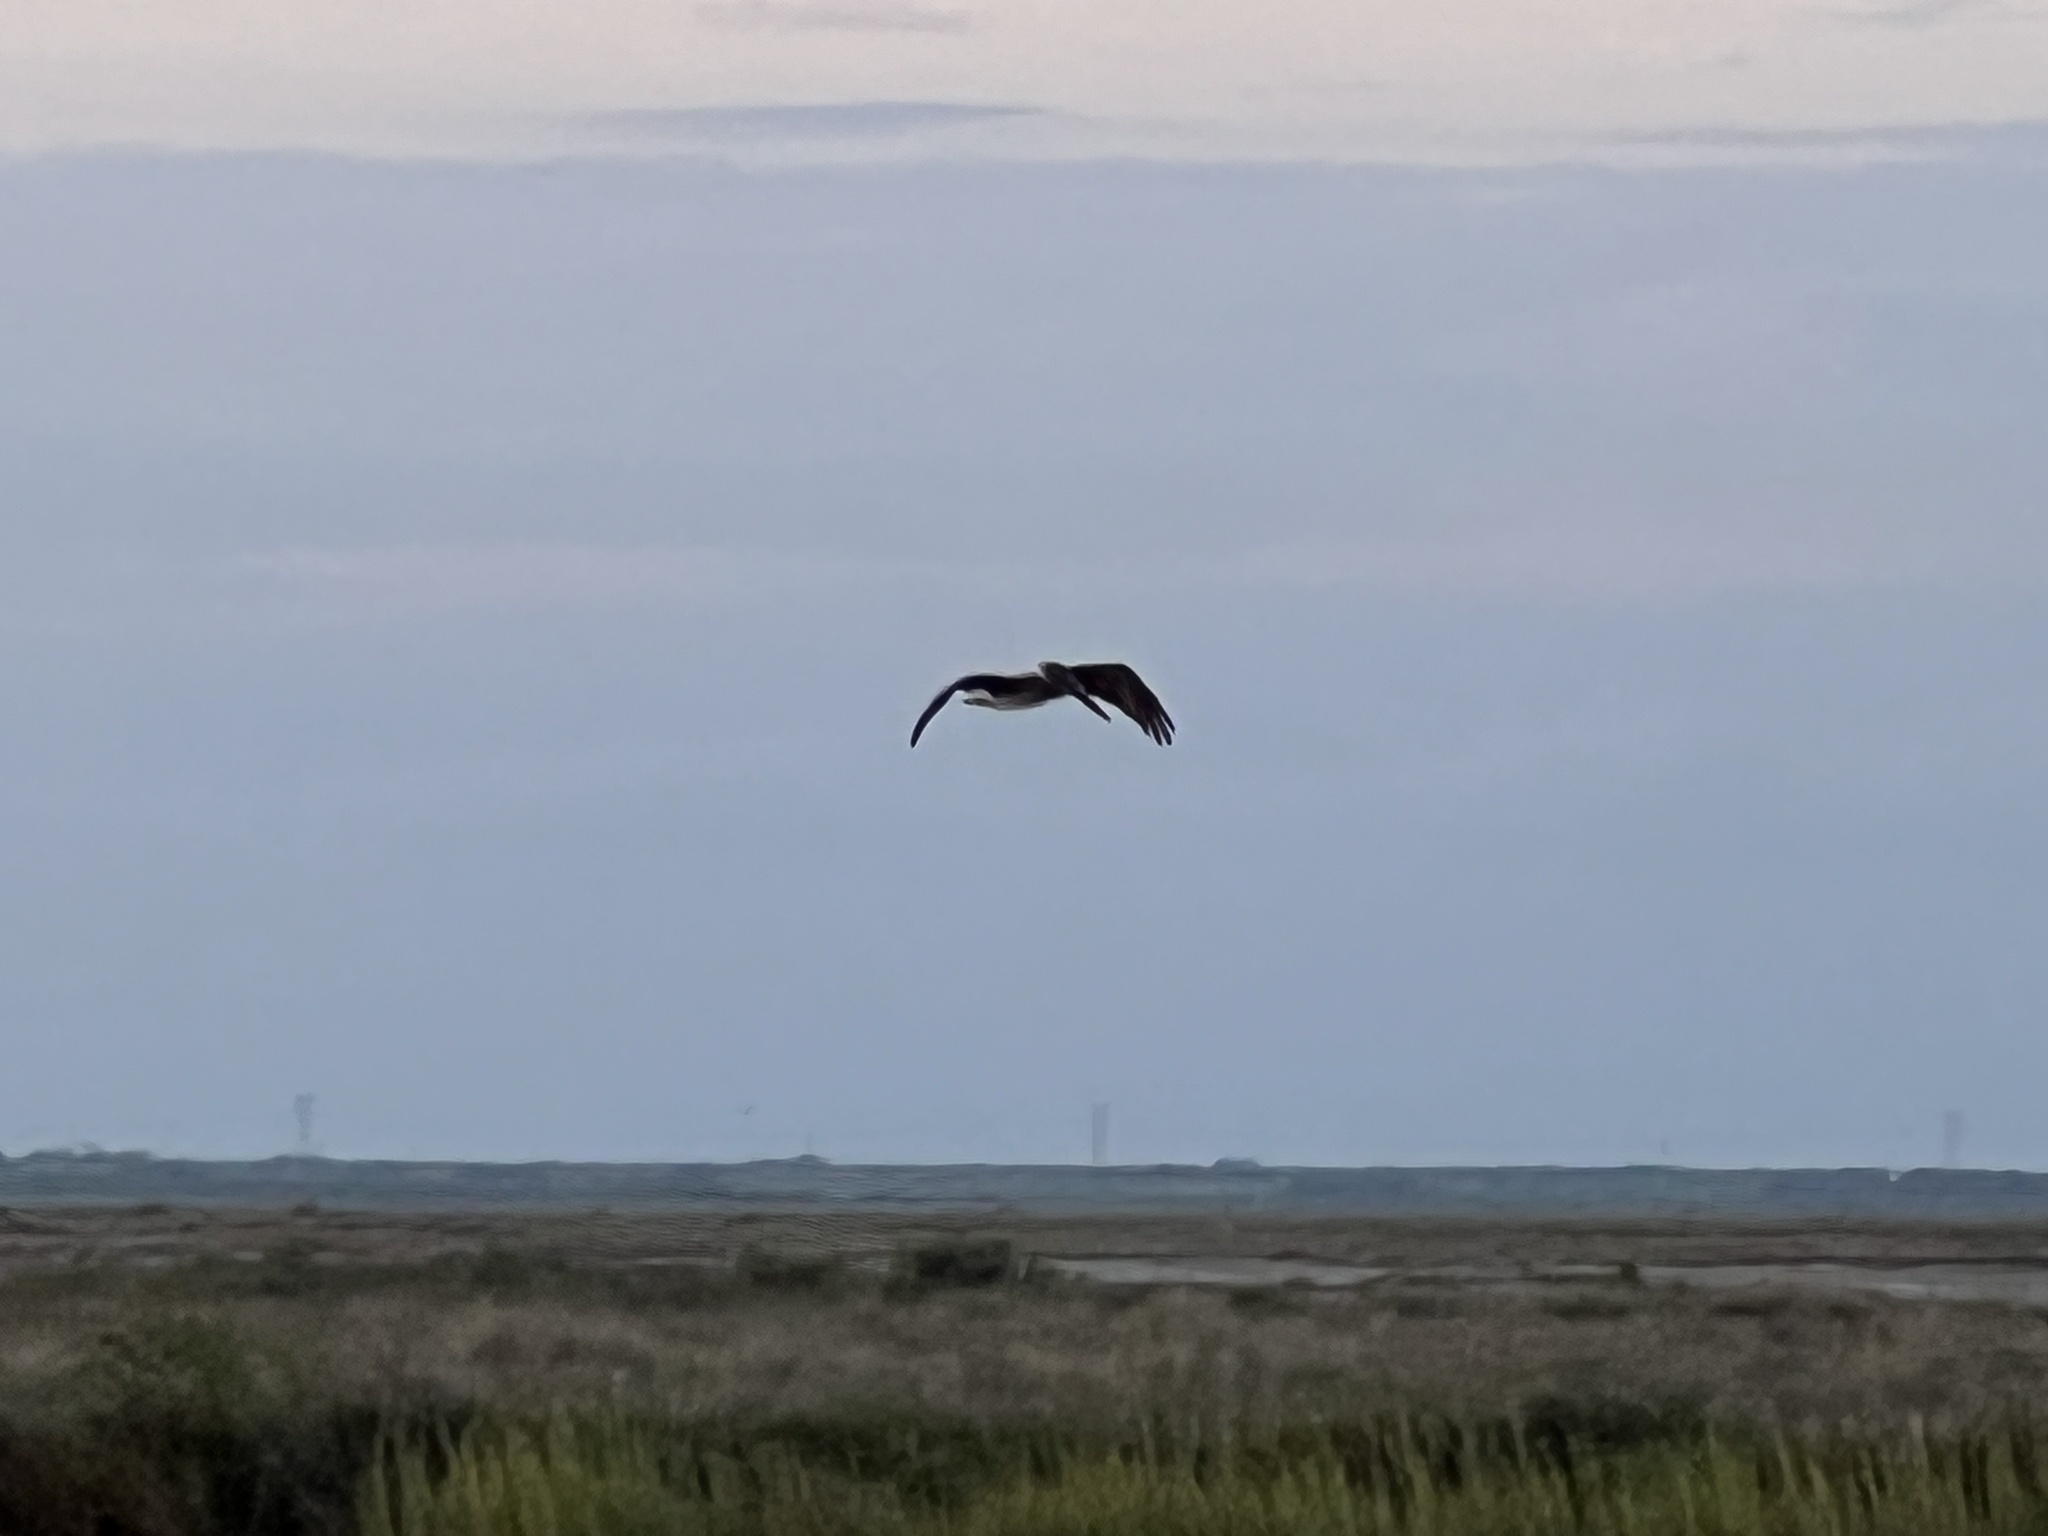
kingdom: Animalia
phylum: Chordata
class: Aves
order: Pelecaniformes
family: Pelecanidae
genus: Pelecanus
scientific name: Pelecanus occidentalis
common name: Brown pelican
